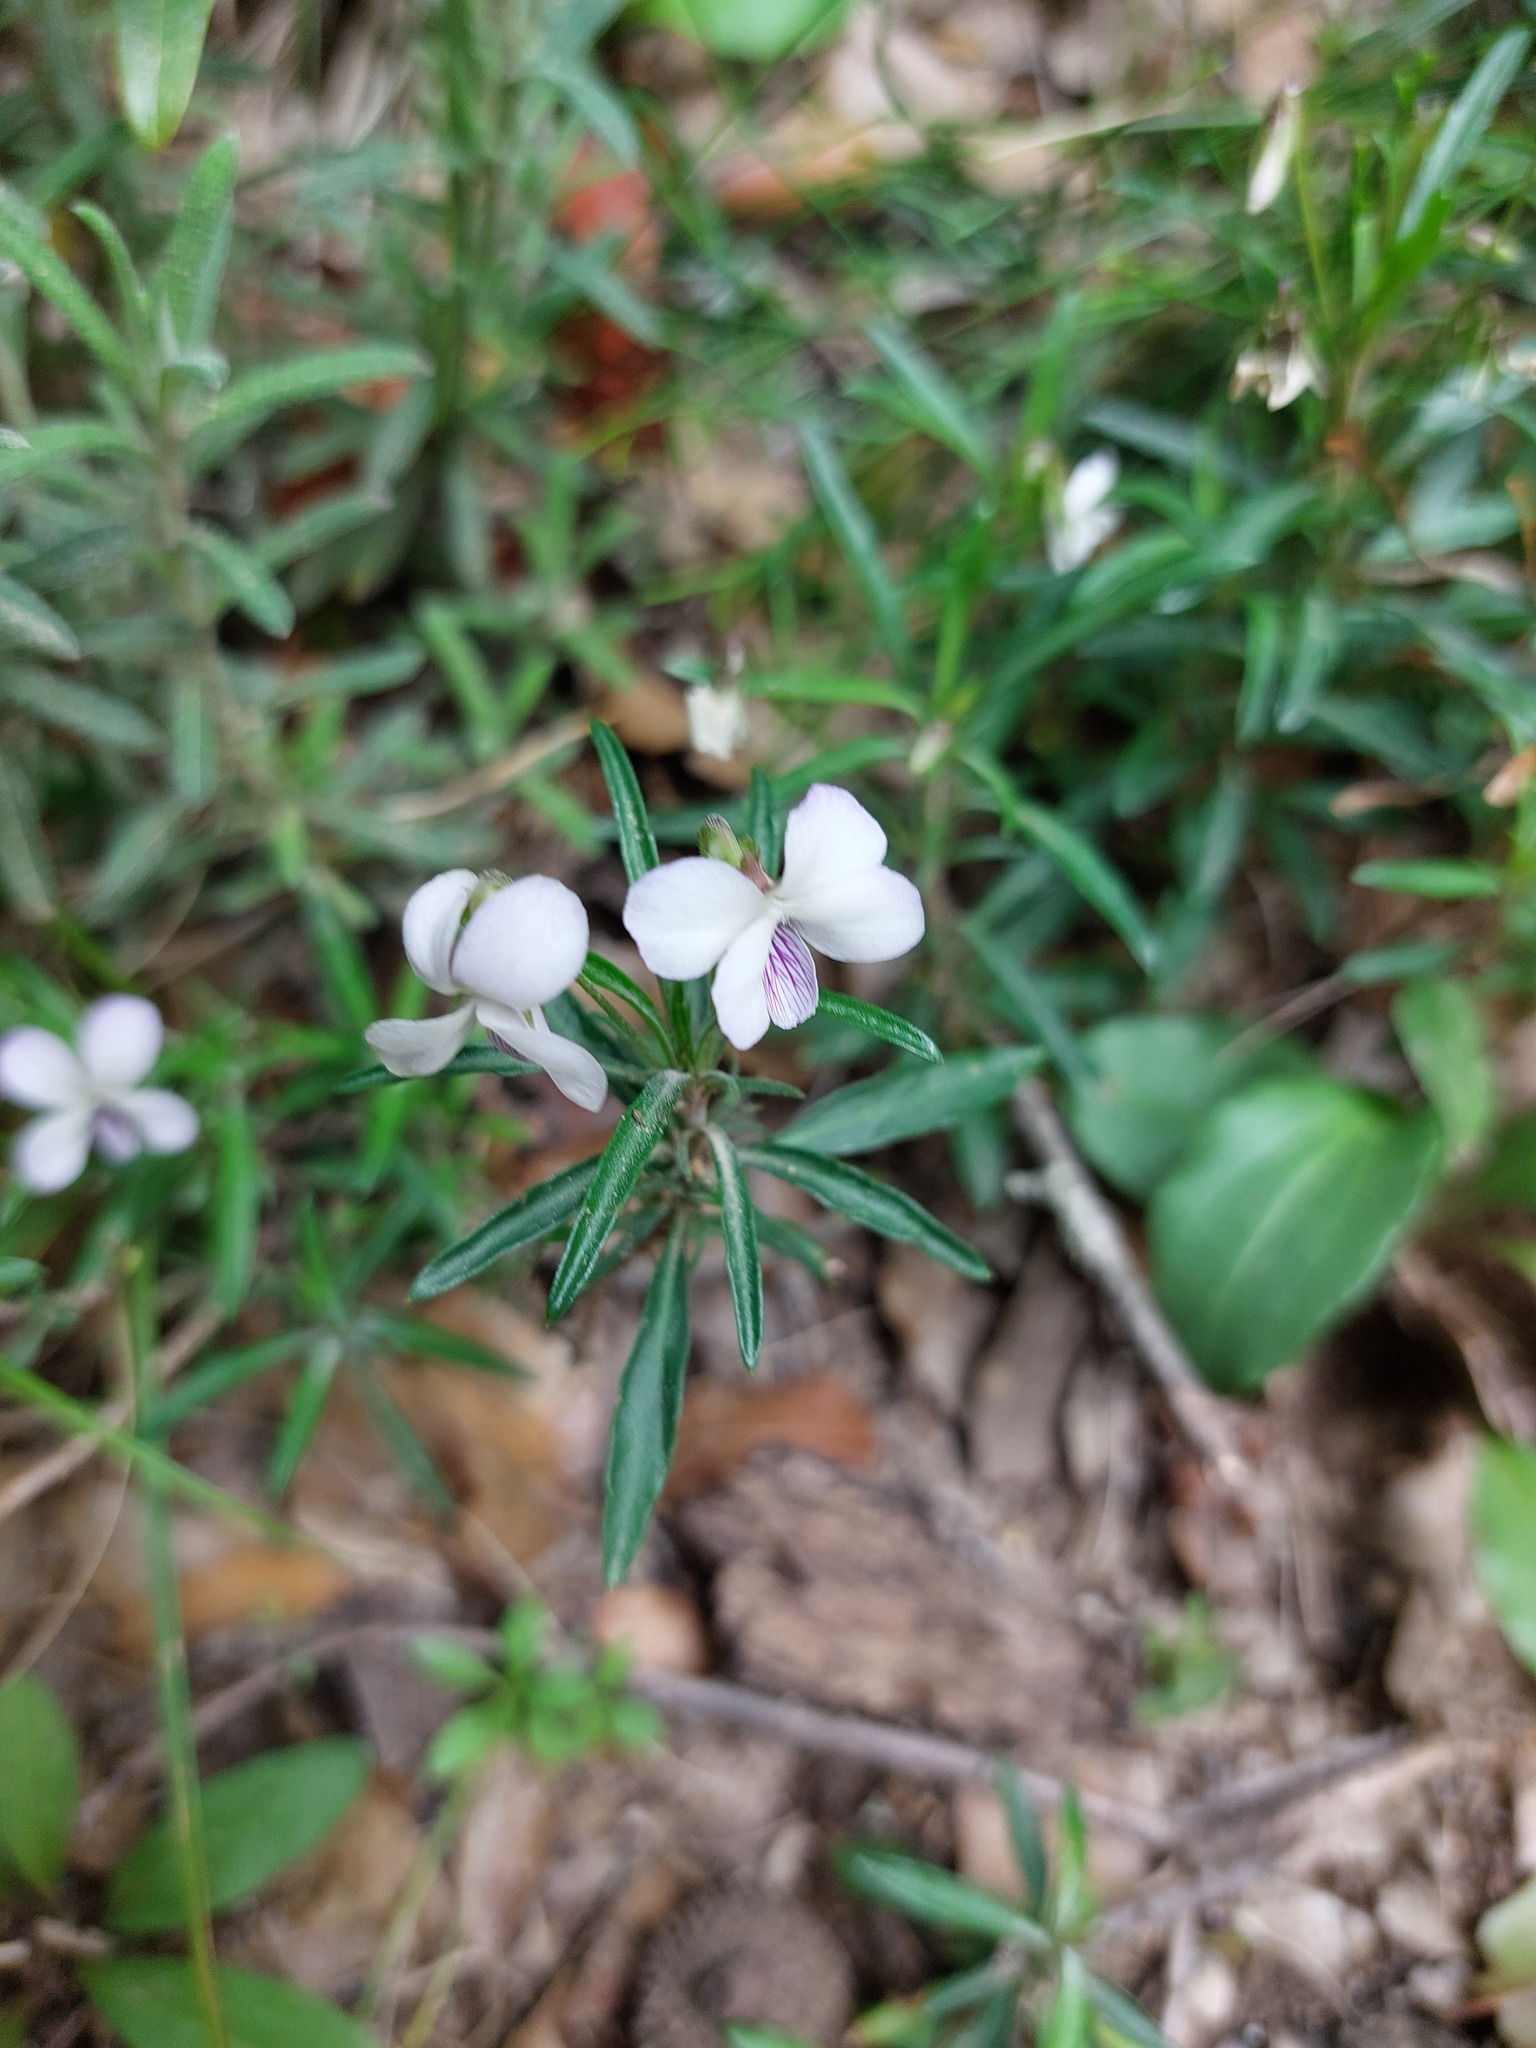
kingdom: Plantae
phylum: Tracheophyta
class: Magnoliopsida
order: Malpighiales
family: Violaceae
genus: Viola
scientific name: Viola arborescens
